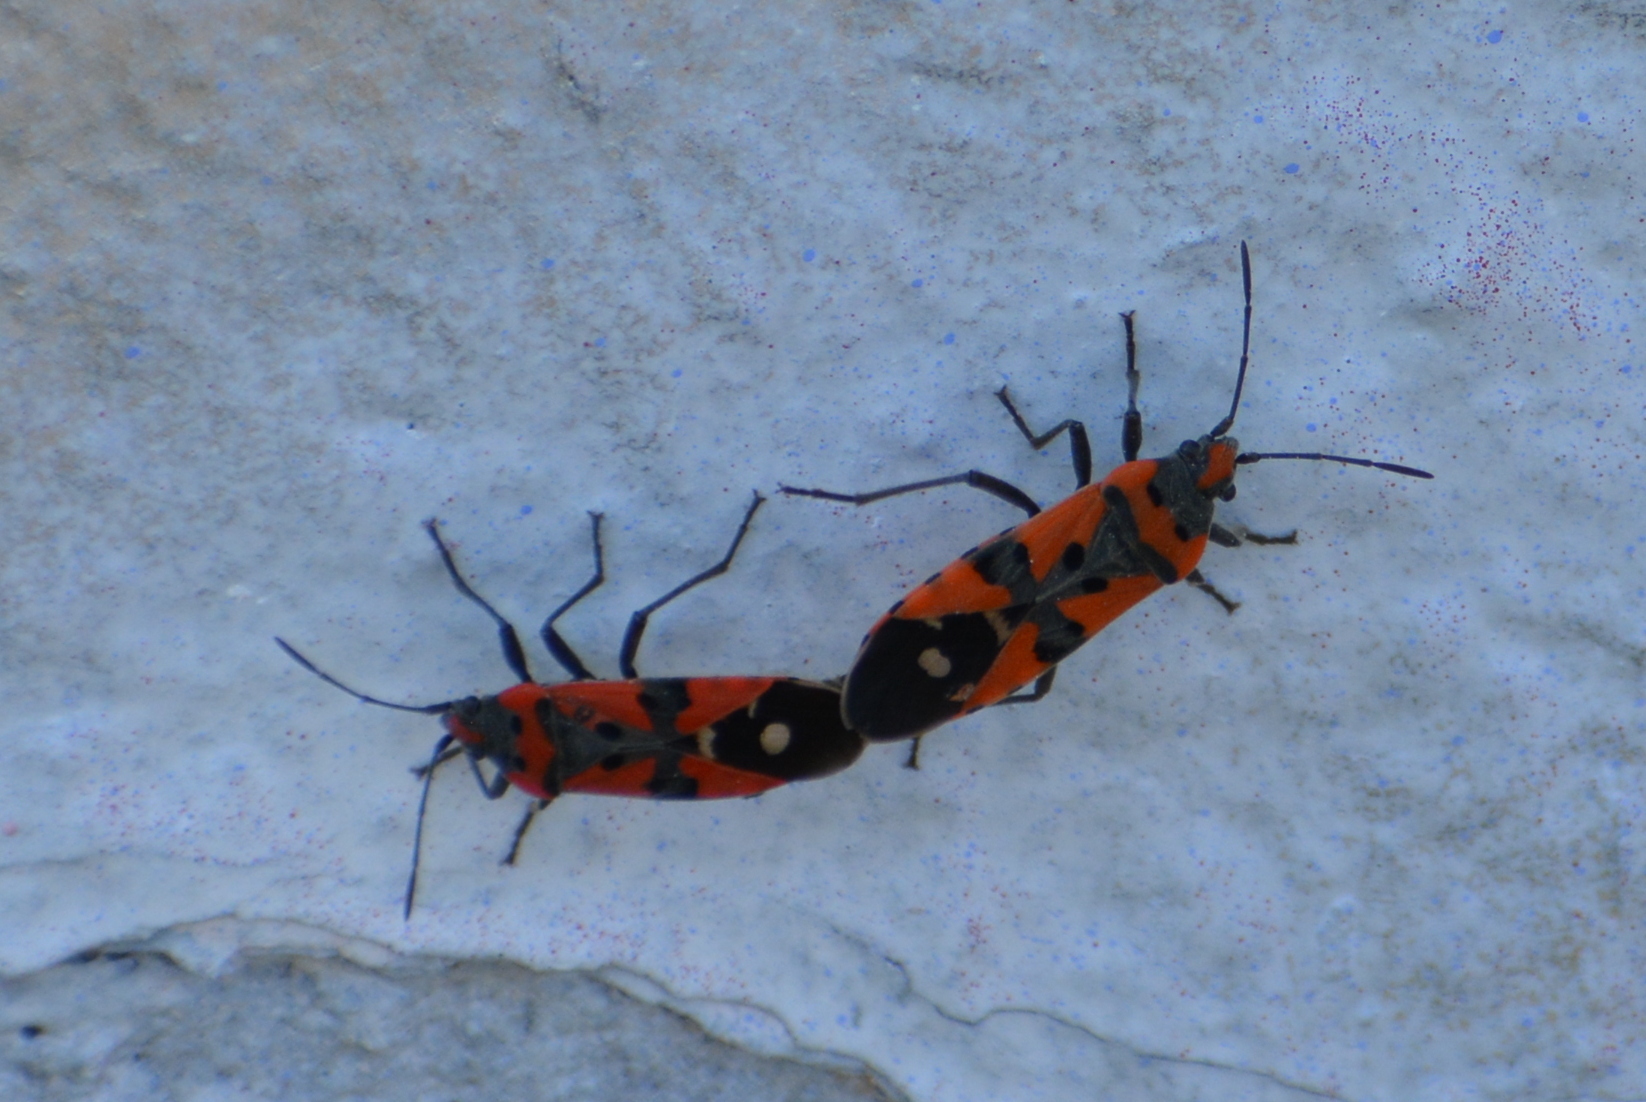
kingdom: Animalia
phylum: Arthropoda
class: Insecta
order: Hemiptera
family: Lygaeidae
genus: Lygaeus
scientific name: Lygaeus equestris
